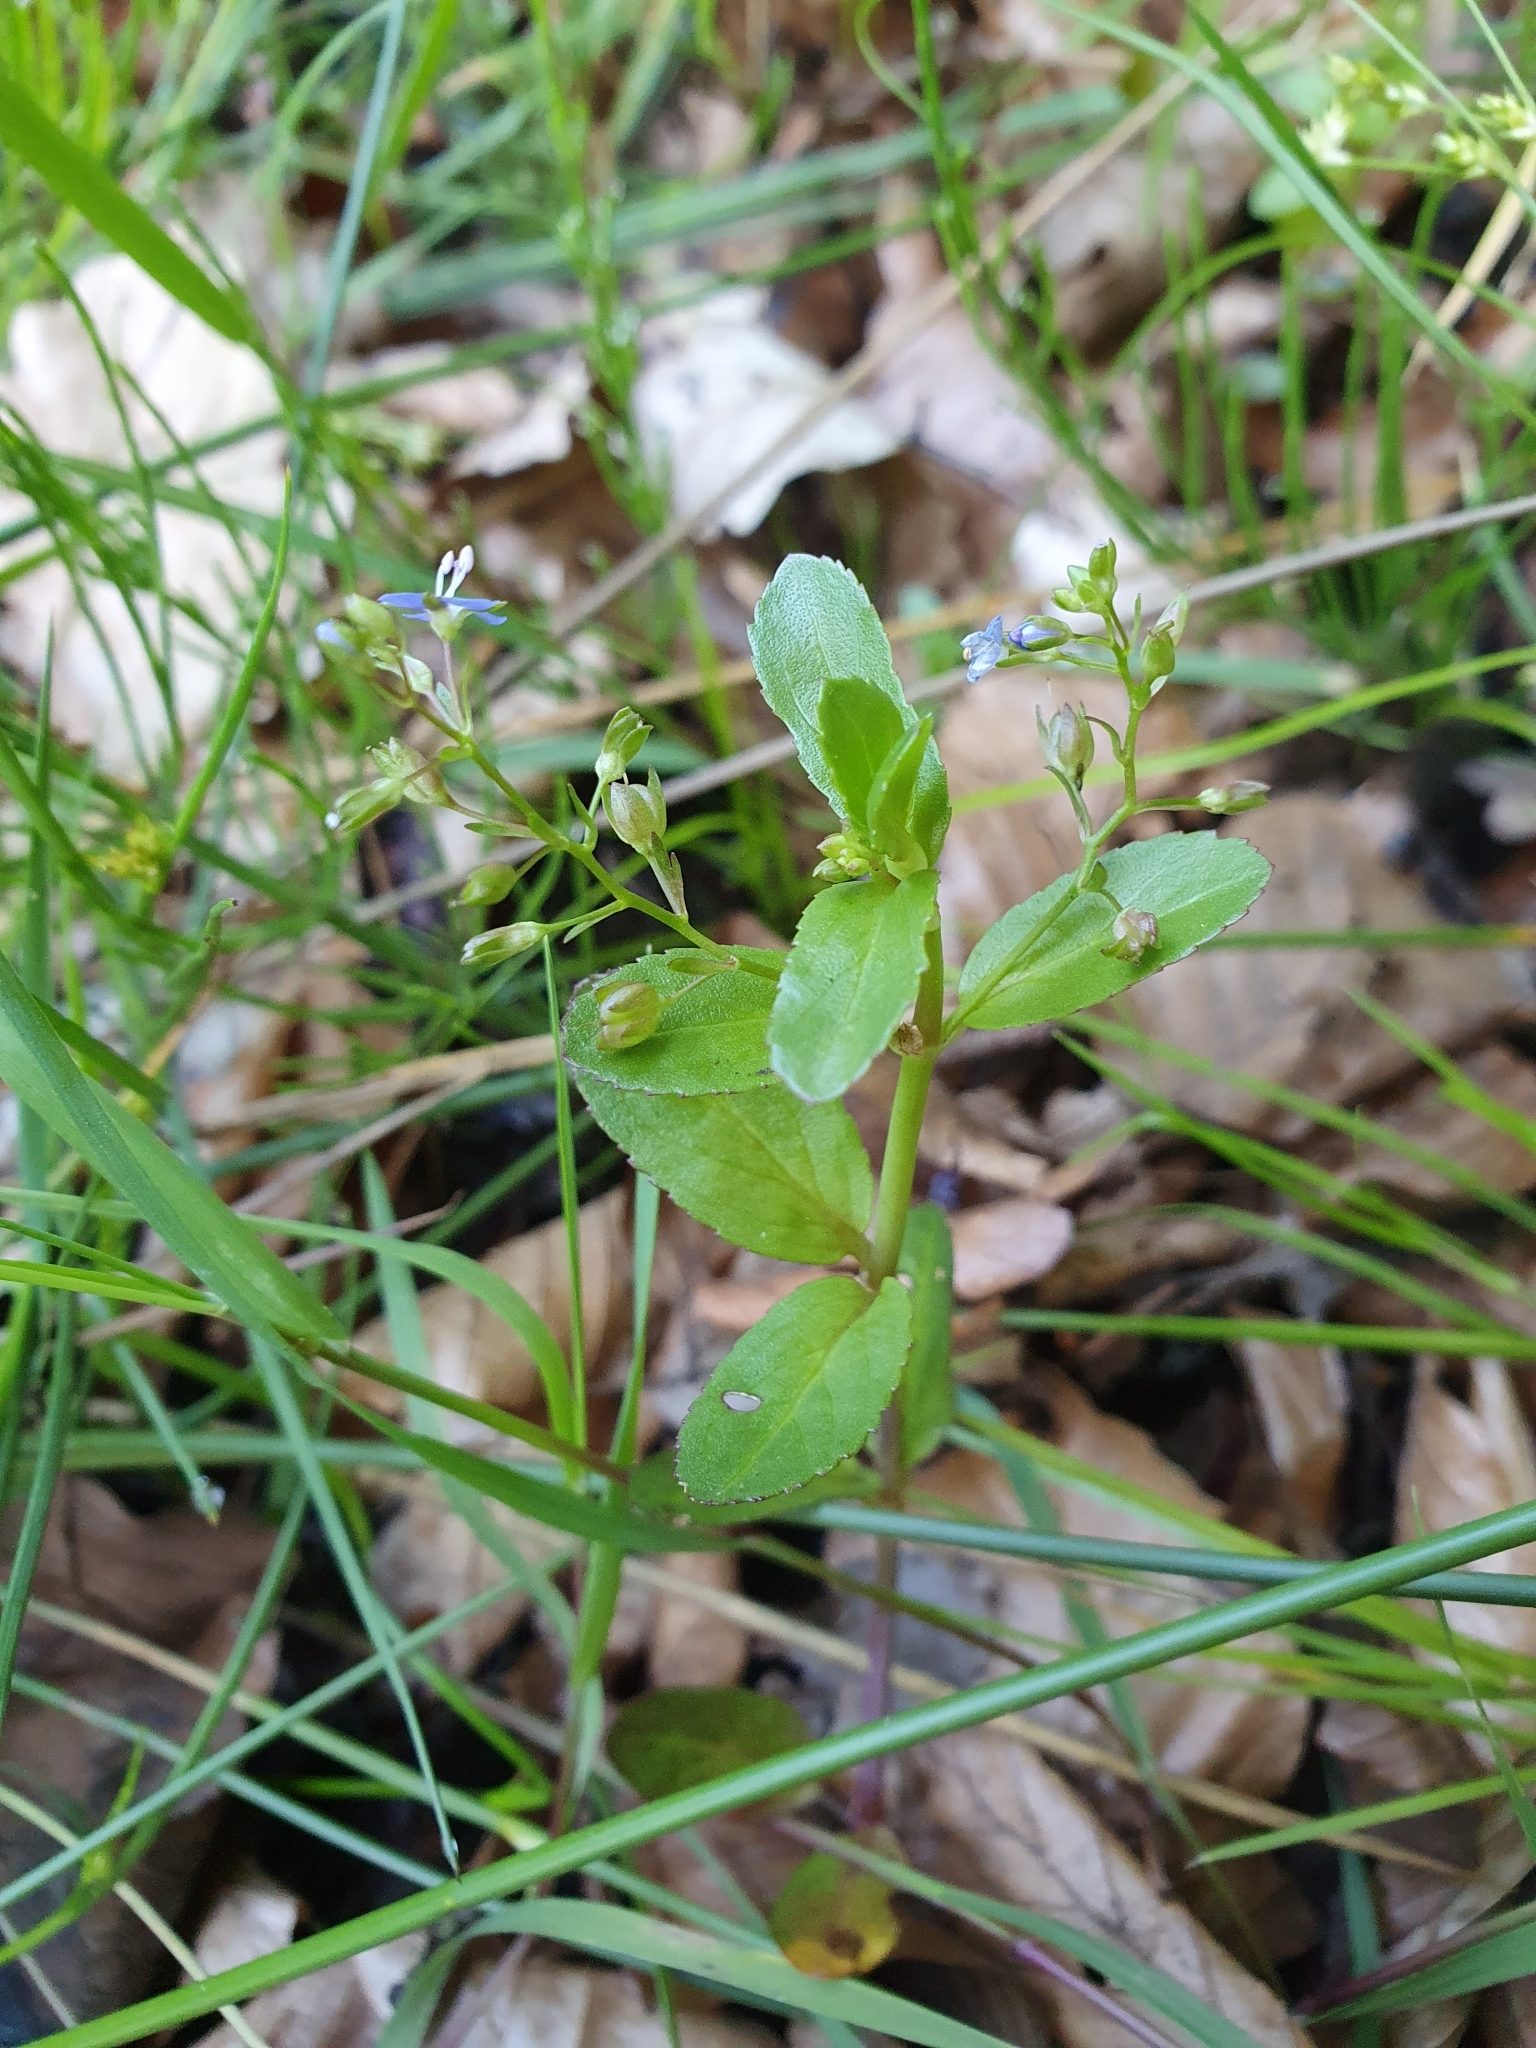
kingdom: Plantae
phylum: Tracheophyta
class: Magnoliopsida
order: Lamiales
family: Plantaginaceae
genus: Veronica
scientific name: Veronica beccabunga
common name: Brooklime
